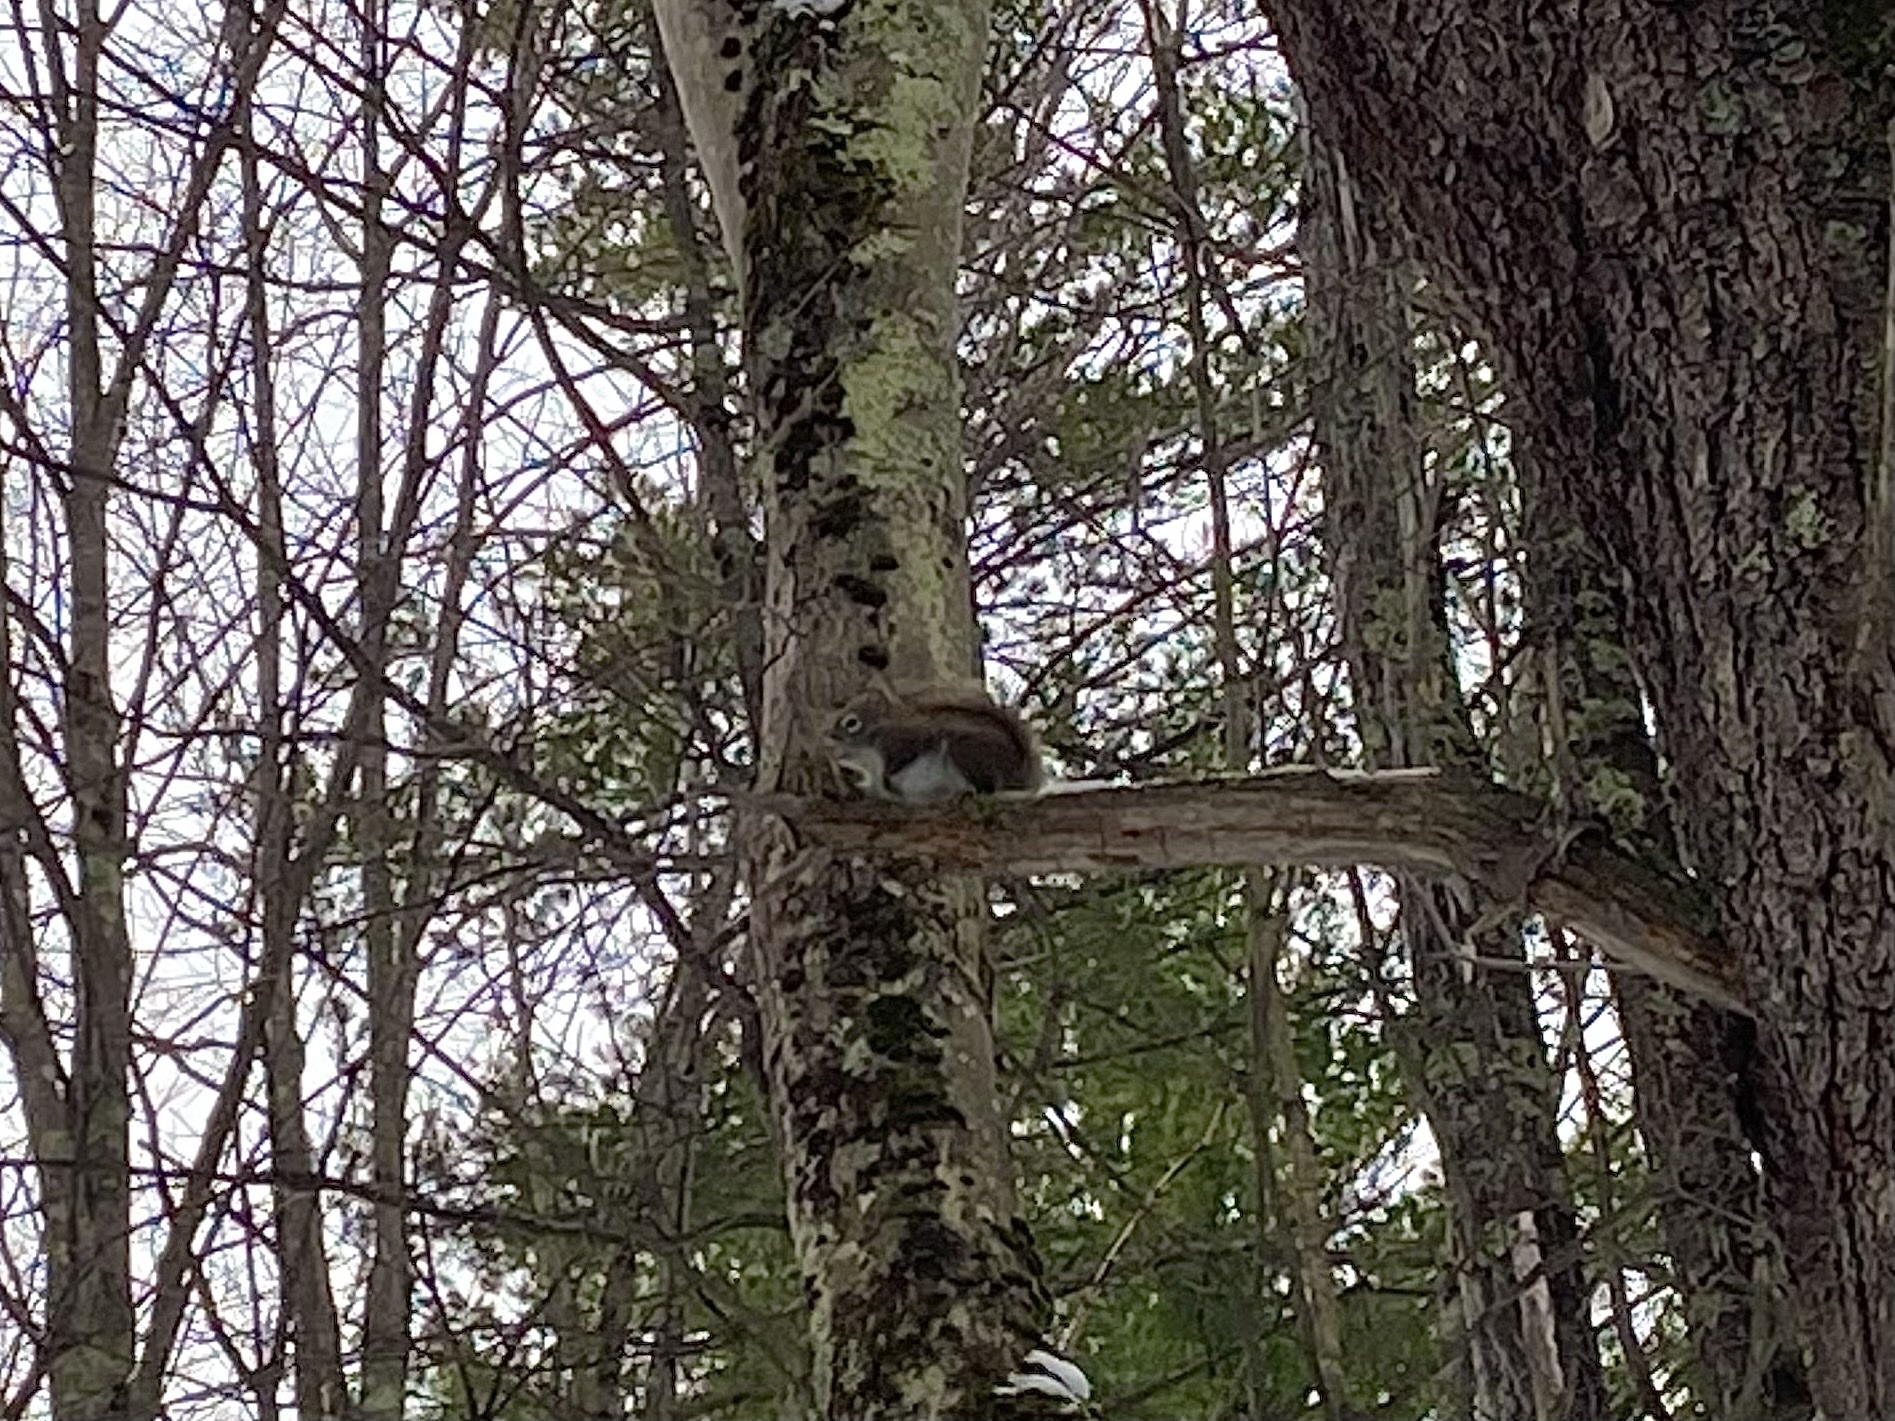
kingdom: Animalia
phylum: Chordata
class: Mammalia
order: Rodentia
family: Sciuridae
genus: Tamiasciurus
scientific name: Tamiasciurus hudsonicus
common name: Red squirrel
